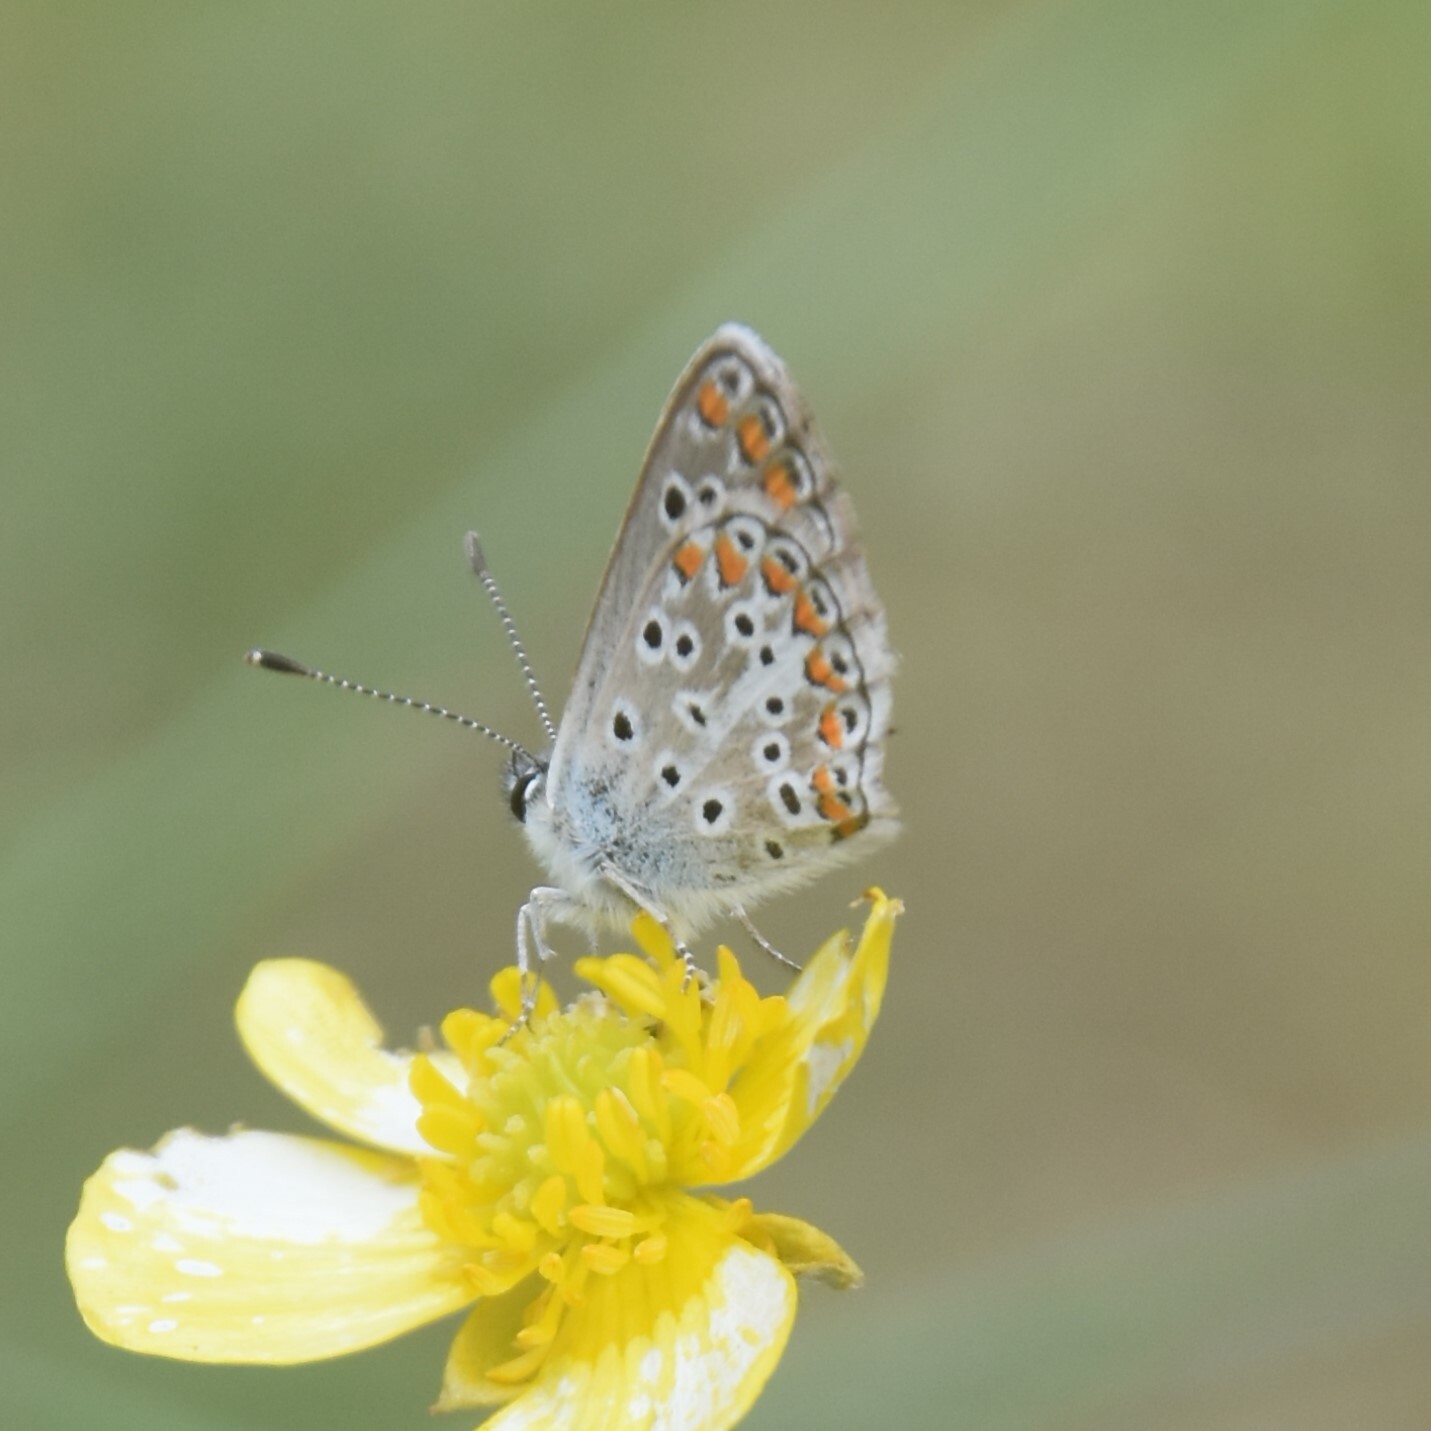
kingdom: Animalia
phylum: Arthropoda
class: Insecta
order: Lepidoptera
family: Lycaenidae
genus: Aricia
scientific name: Aricia agestis
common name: Brown argus
